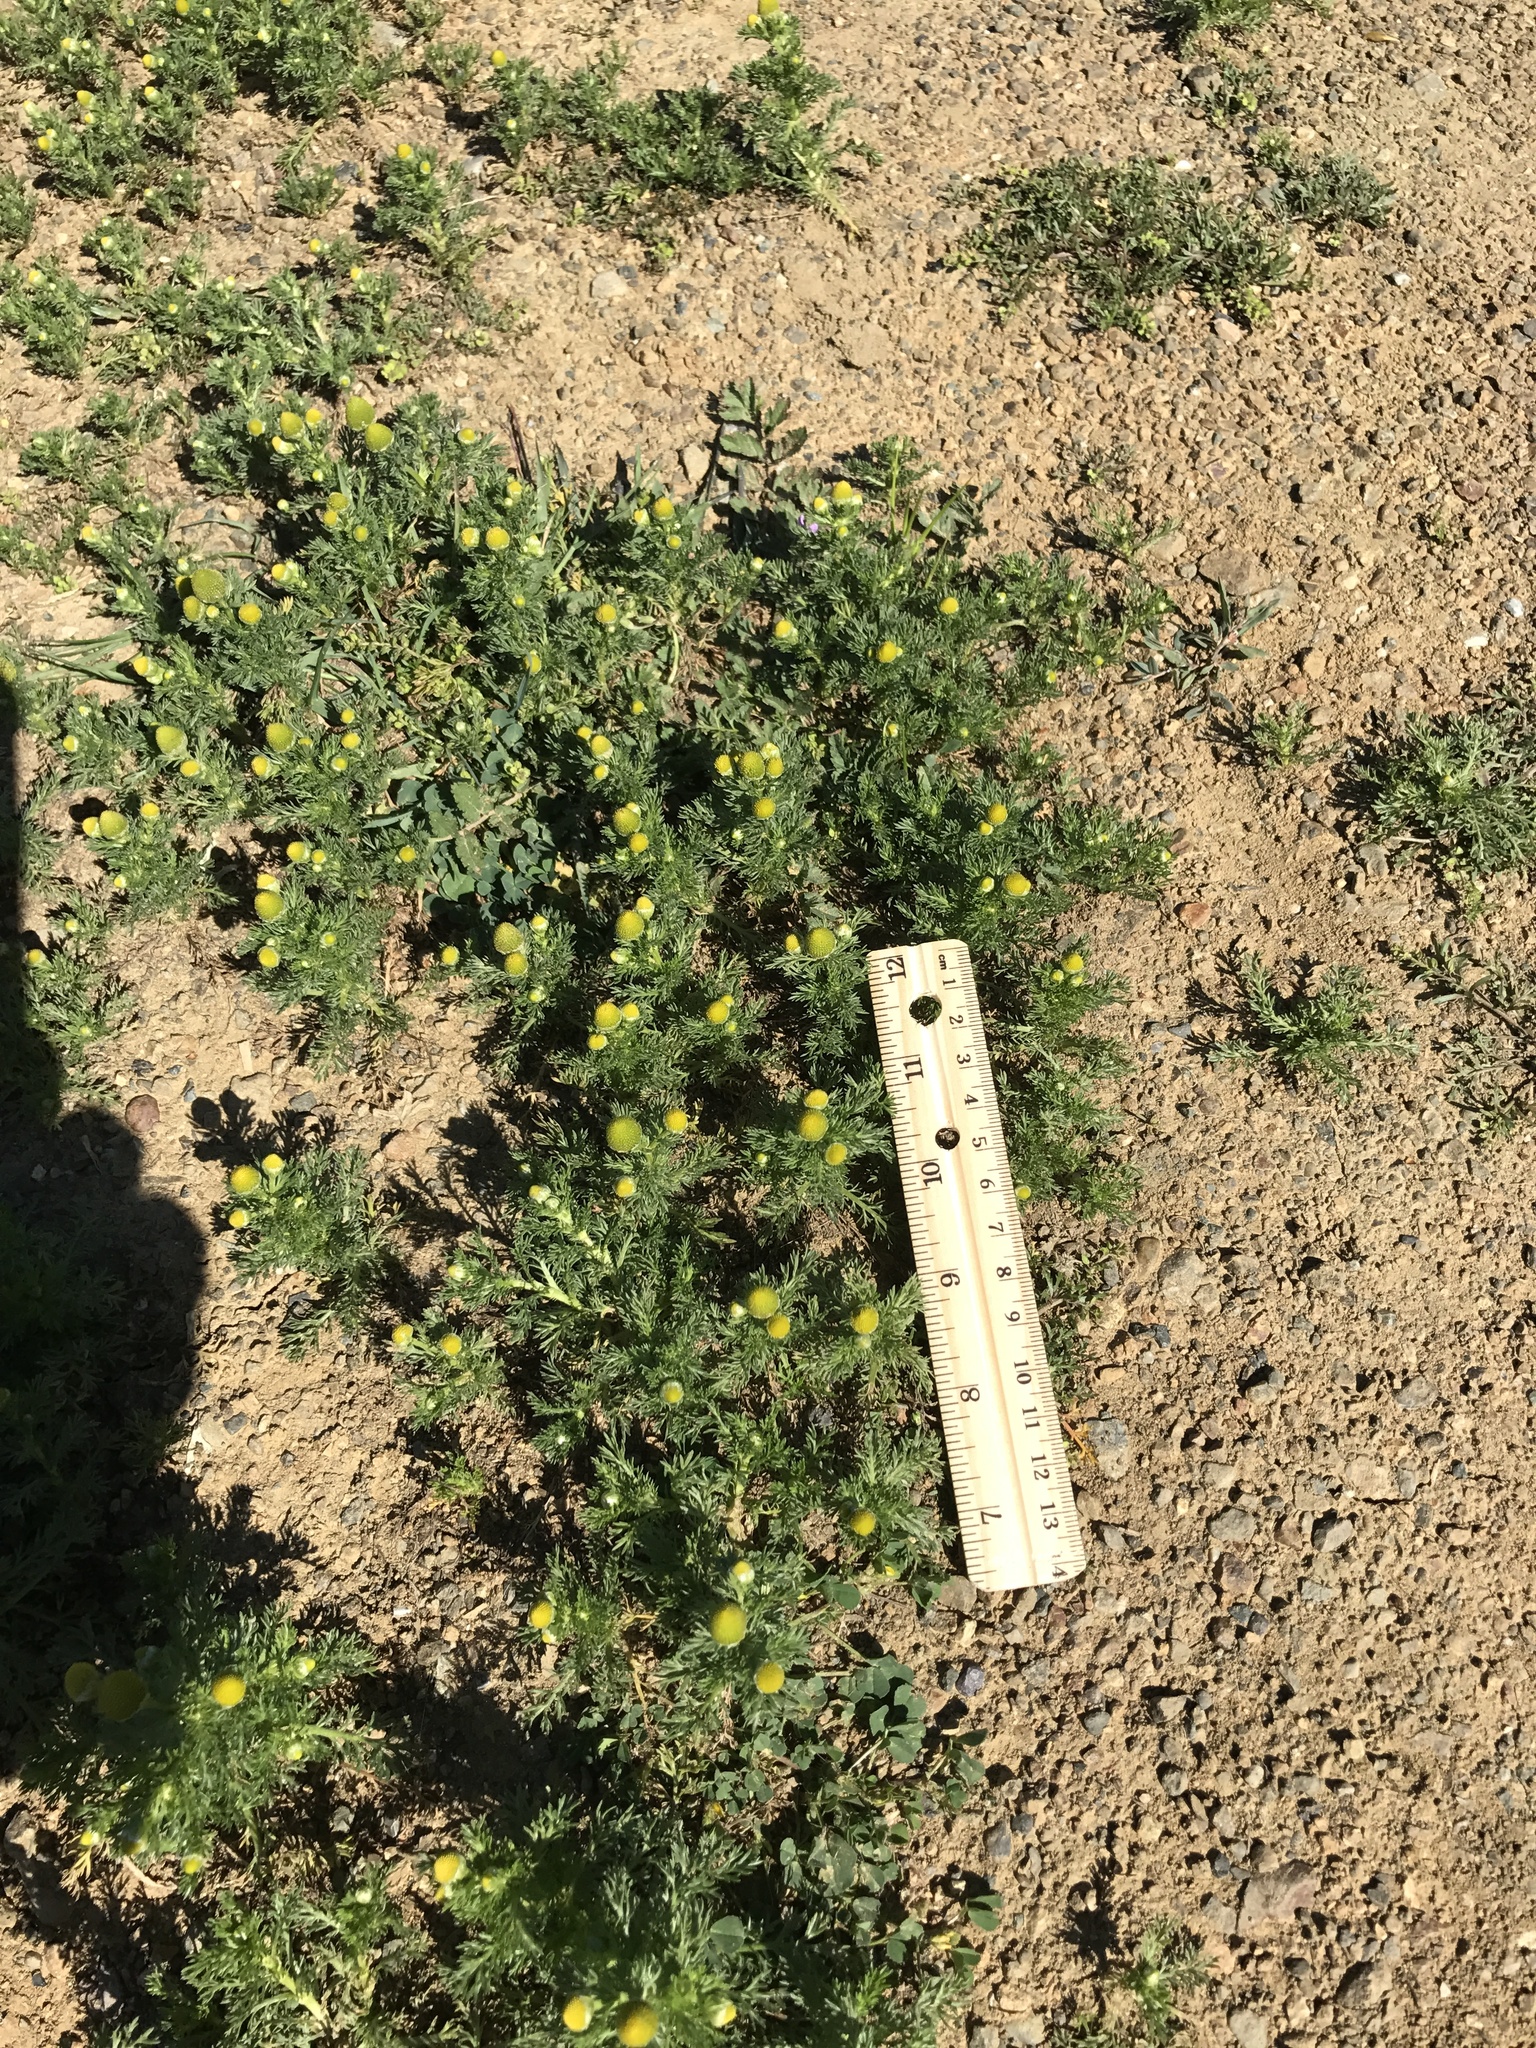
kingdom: Plantae
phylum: Tracheophyta
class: Magnoliopsida
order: Asterales
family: Asteraceae
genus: Matricaria
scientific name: Matricaria discoidea
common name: Disc mayweed
